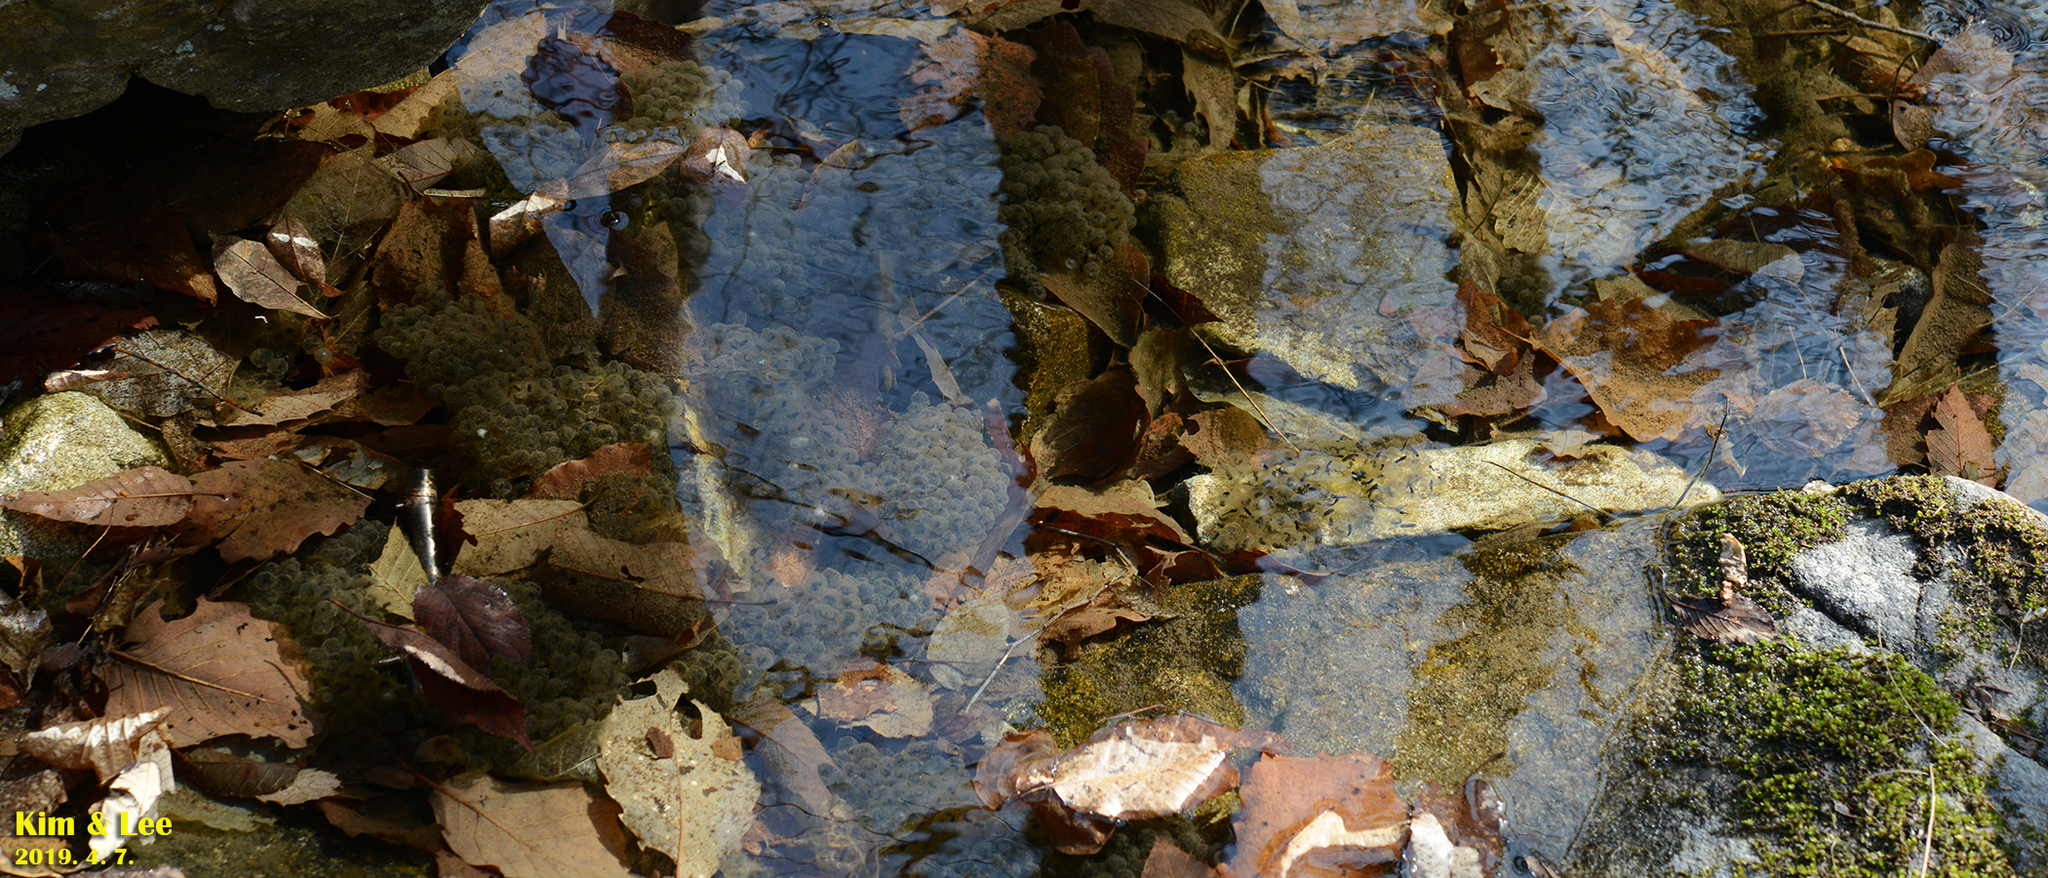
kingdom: Animalia
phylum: Chordata
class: Amphibia
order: Anura
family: Ranidae
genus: Rana
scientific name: Rana huanrenensis
